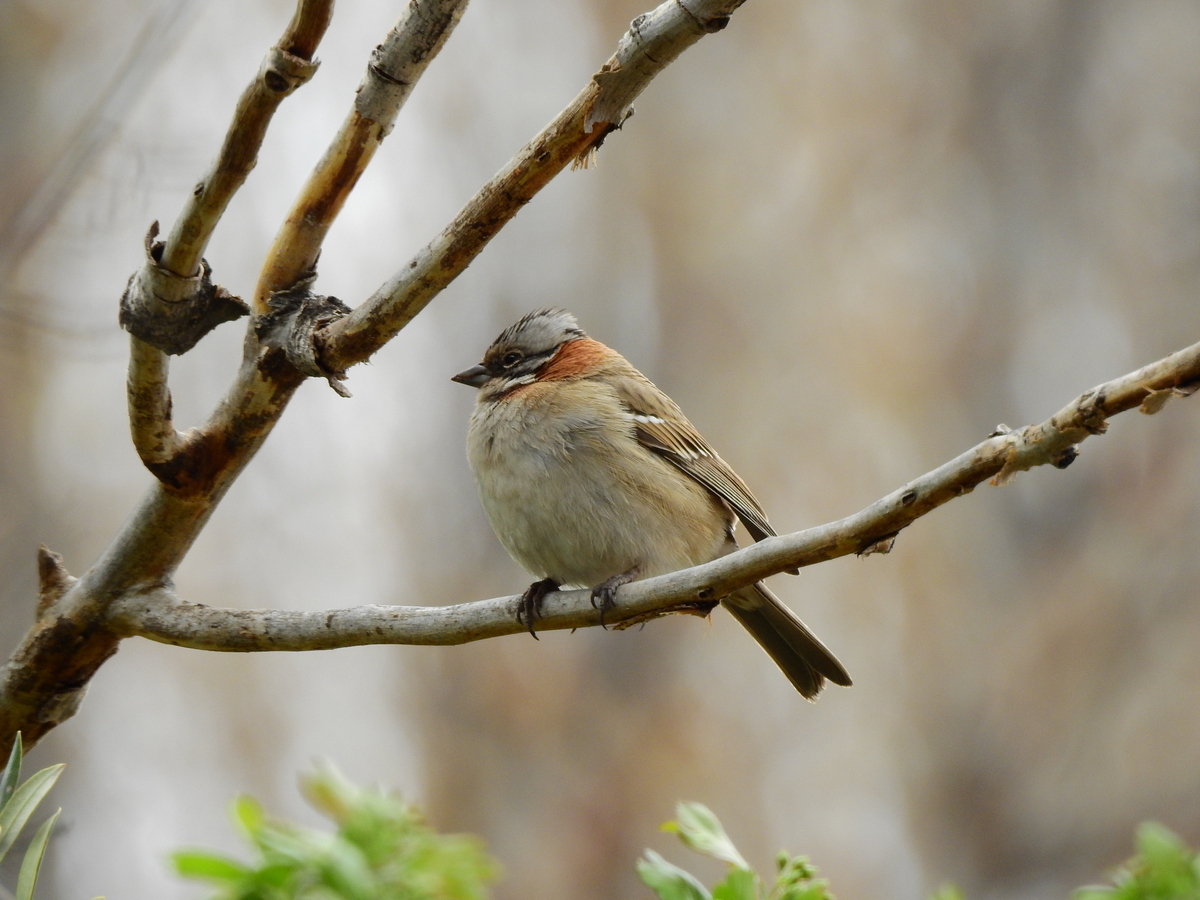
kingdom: Animalia
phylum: Chordata
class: Aves
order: Passeriformes
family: Passerellidae
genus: Zonotrichia
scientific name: Zonotrichia capensis
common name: Rufous-collared sparrow
